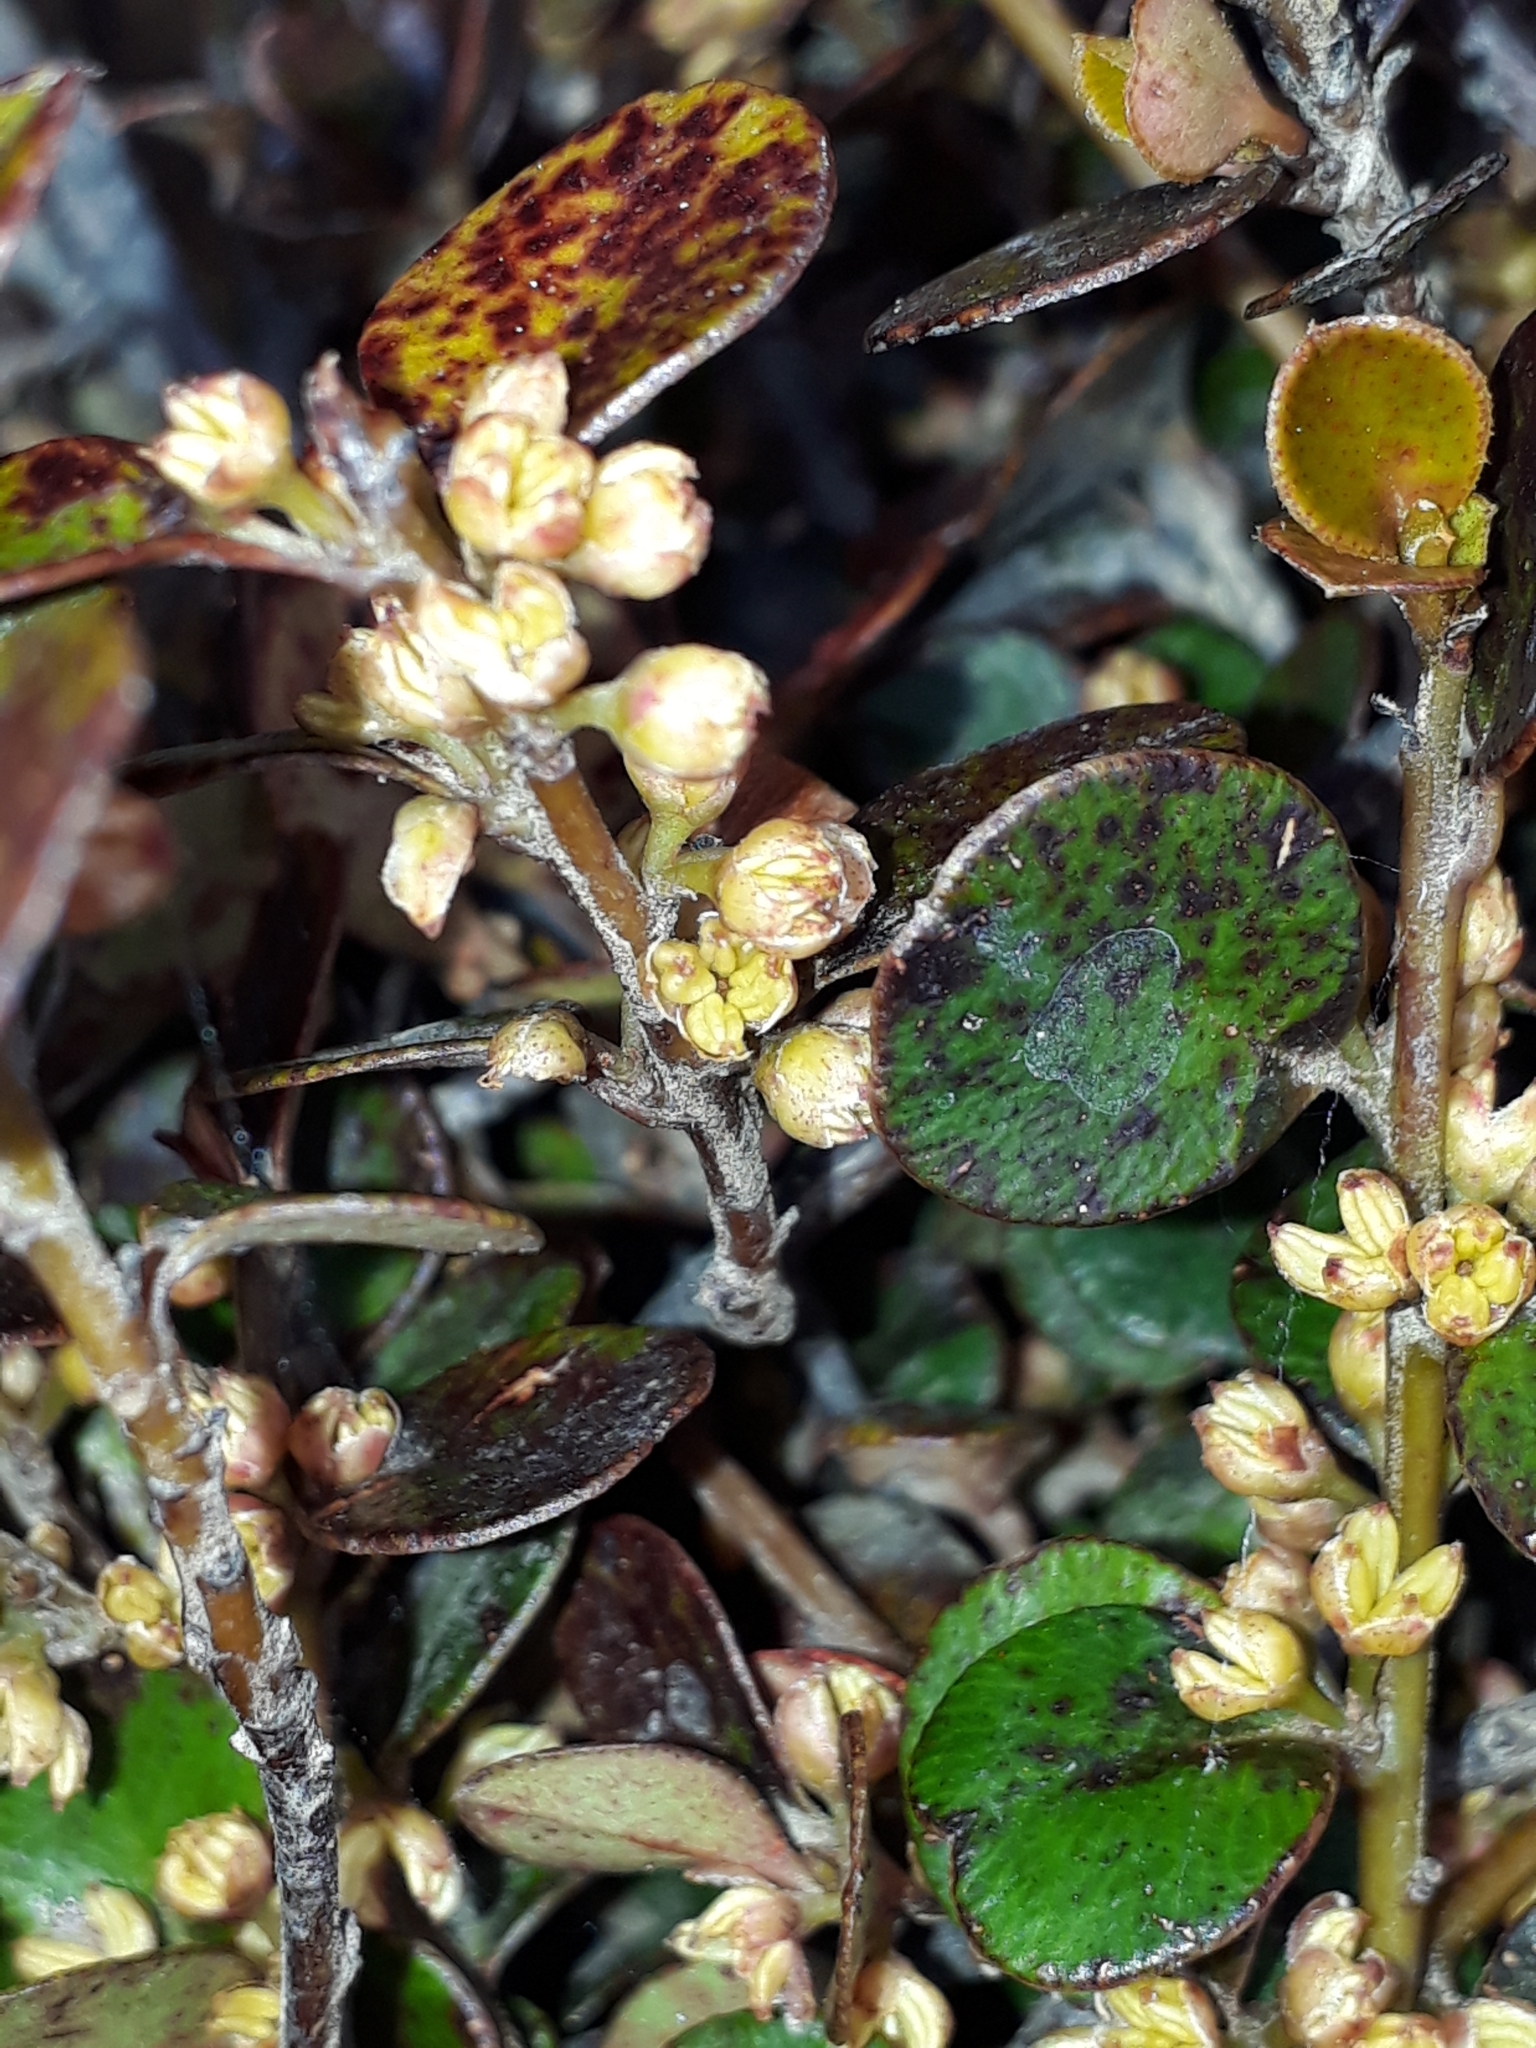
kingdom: Plantae
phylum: Tracheophyta
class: Magnoliopsida
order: Ericales
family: Primulaceae
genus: Myrsine
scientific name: Myrsine nummularia
